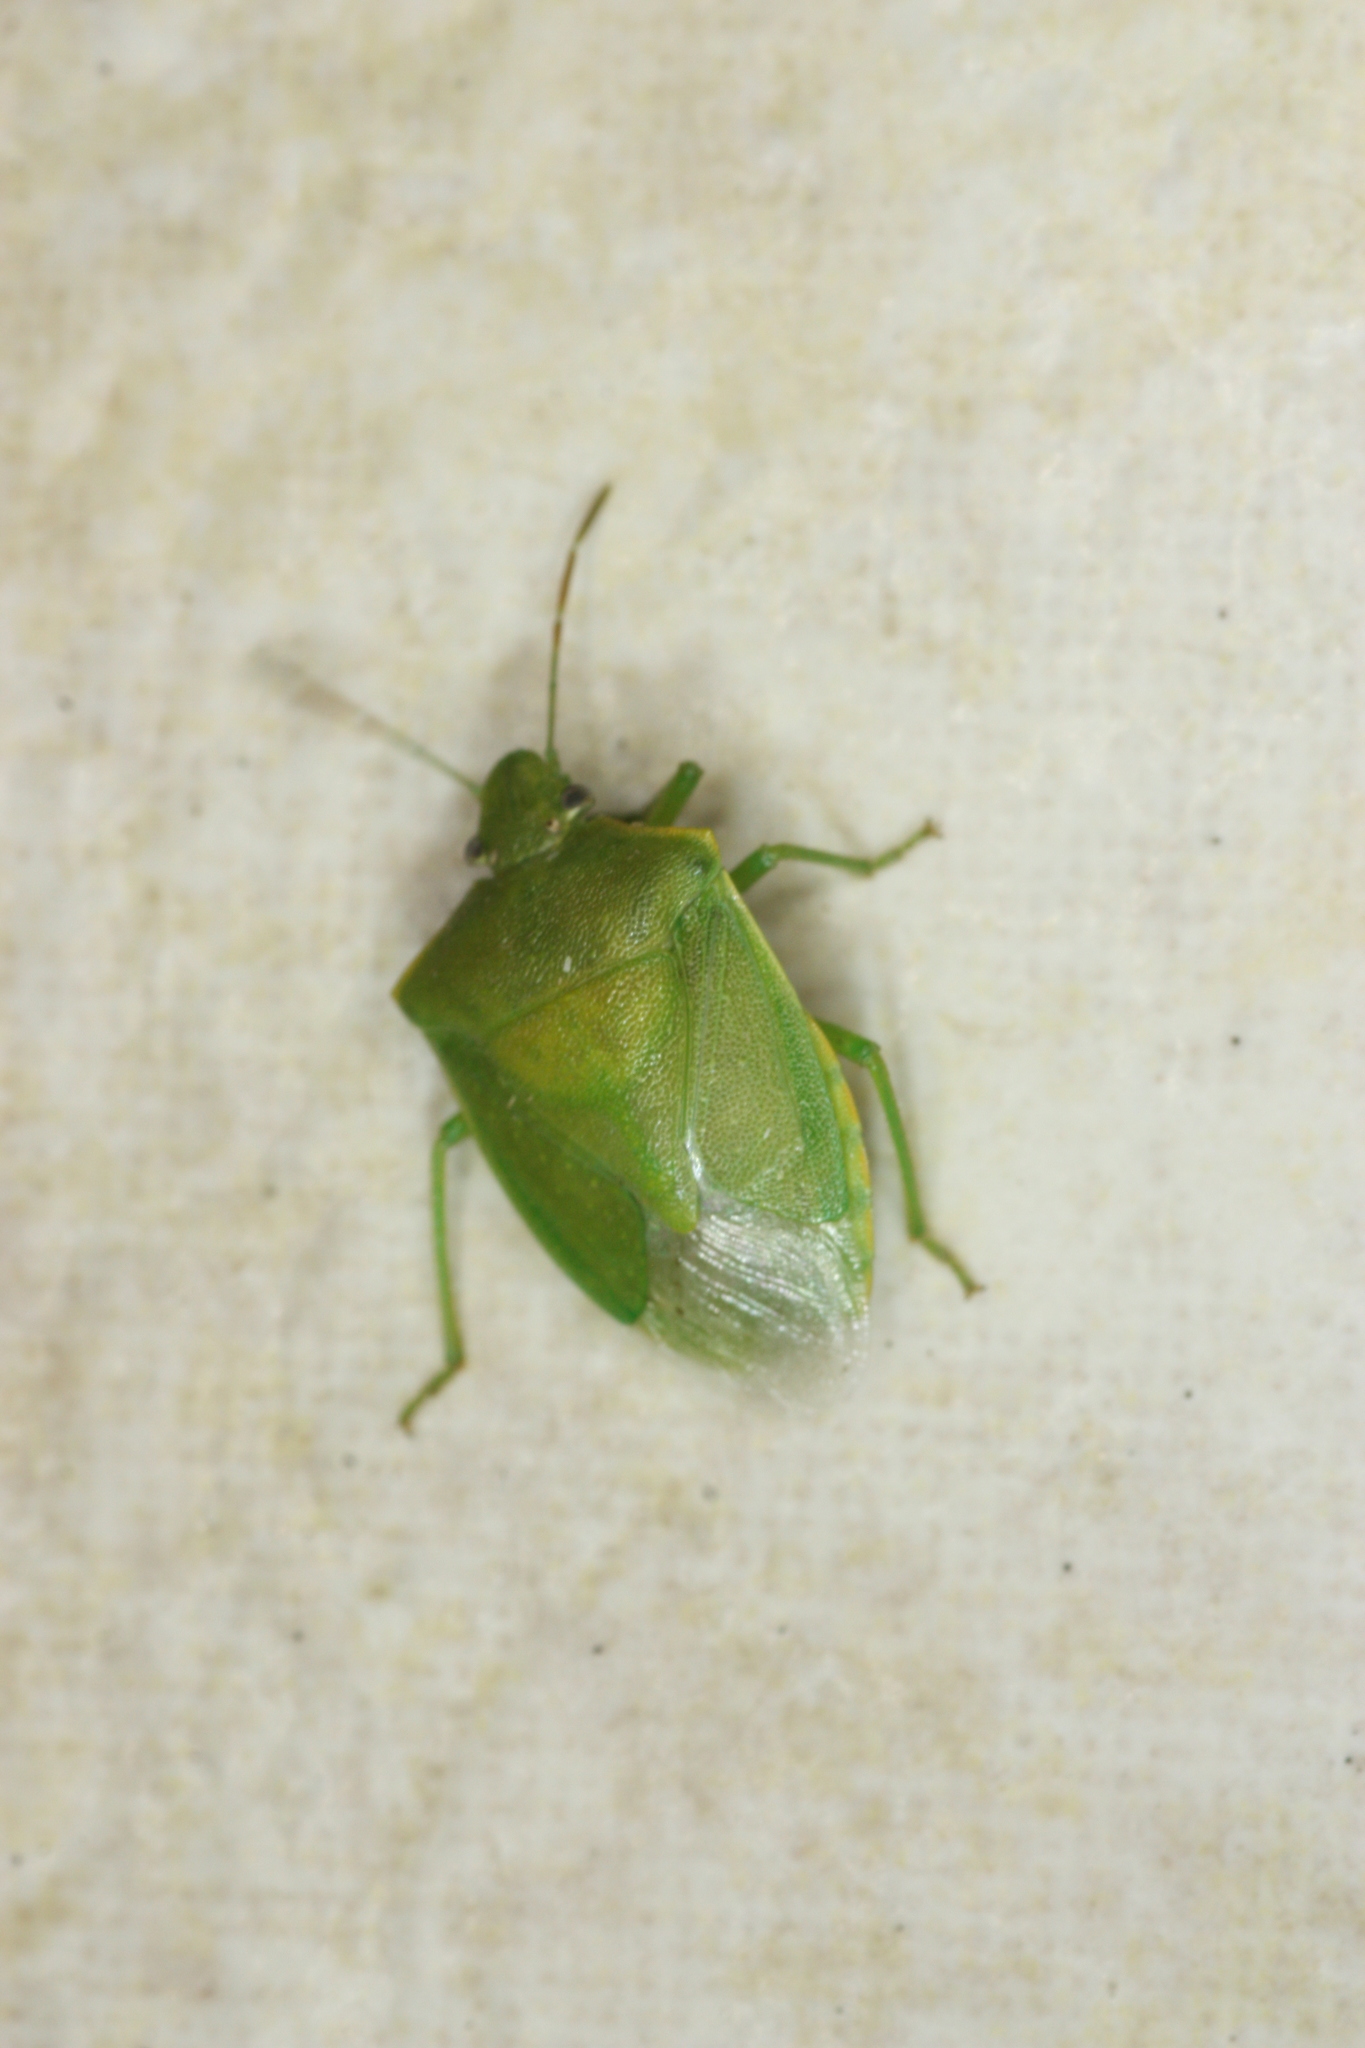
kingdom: Animalia
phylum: Arthropoda
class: Insecta
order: Hemiptera
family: Pentatomidae
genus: Thyanta
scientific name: Thyanta custator
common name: Stink bug
